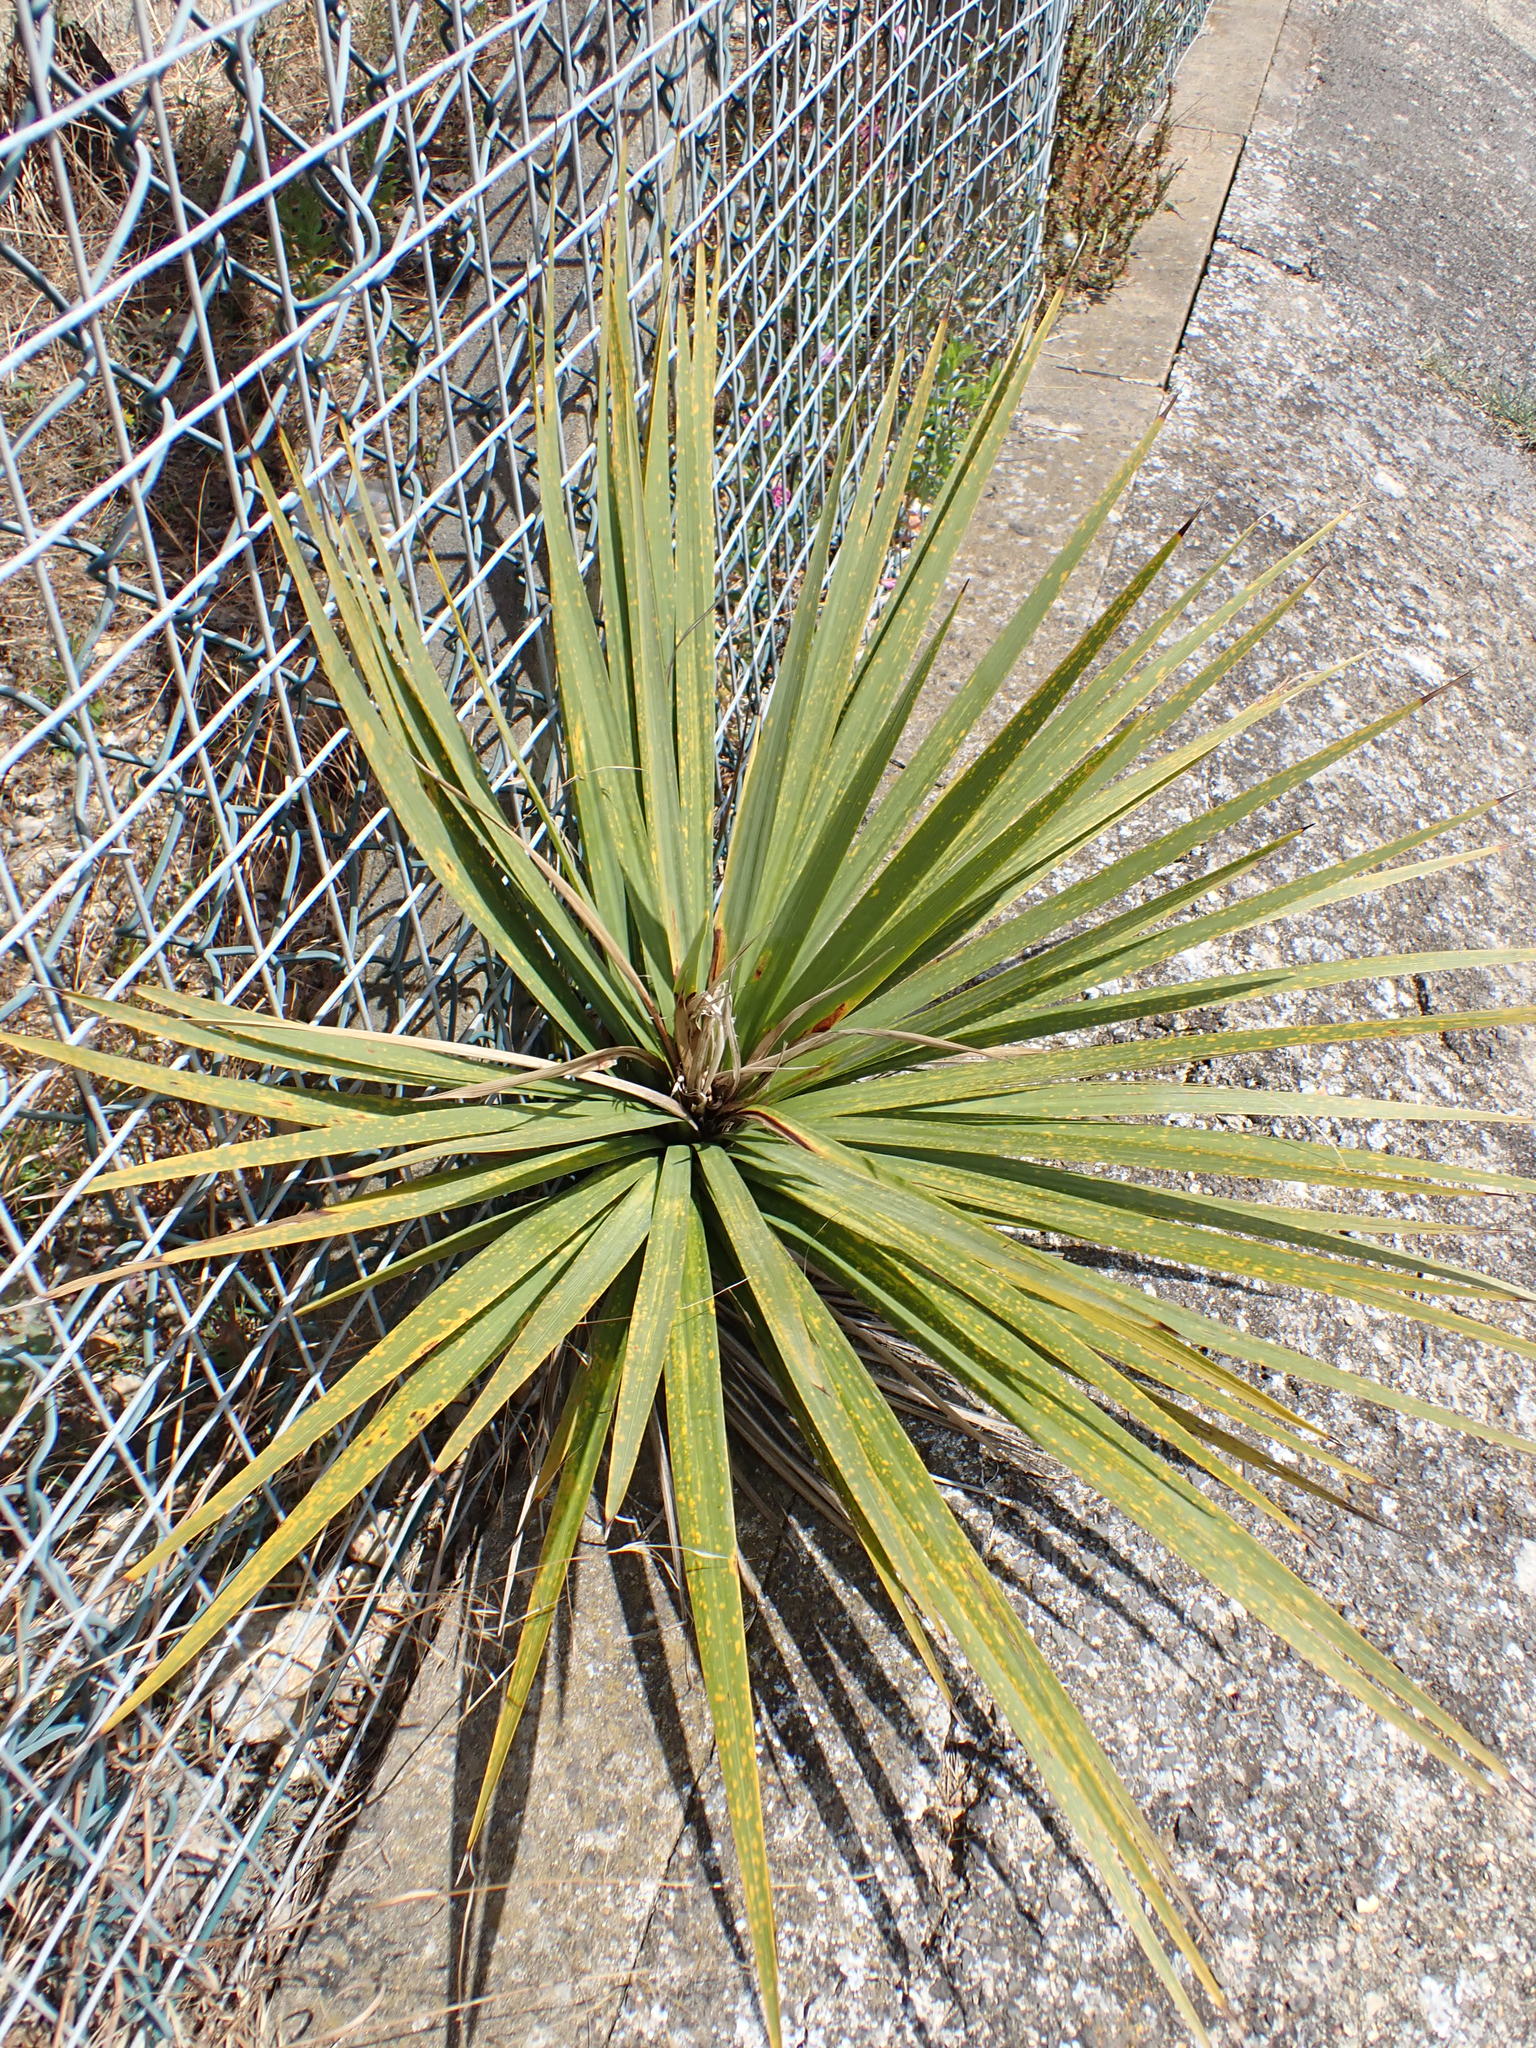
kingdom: Plantae
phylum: Tracheophyta
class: Liliopsida
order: Asparagales
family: Asparagaceae
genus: Cordyline
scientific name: Cordyline australis
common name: Cabbage-palm
